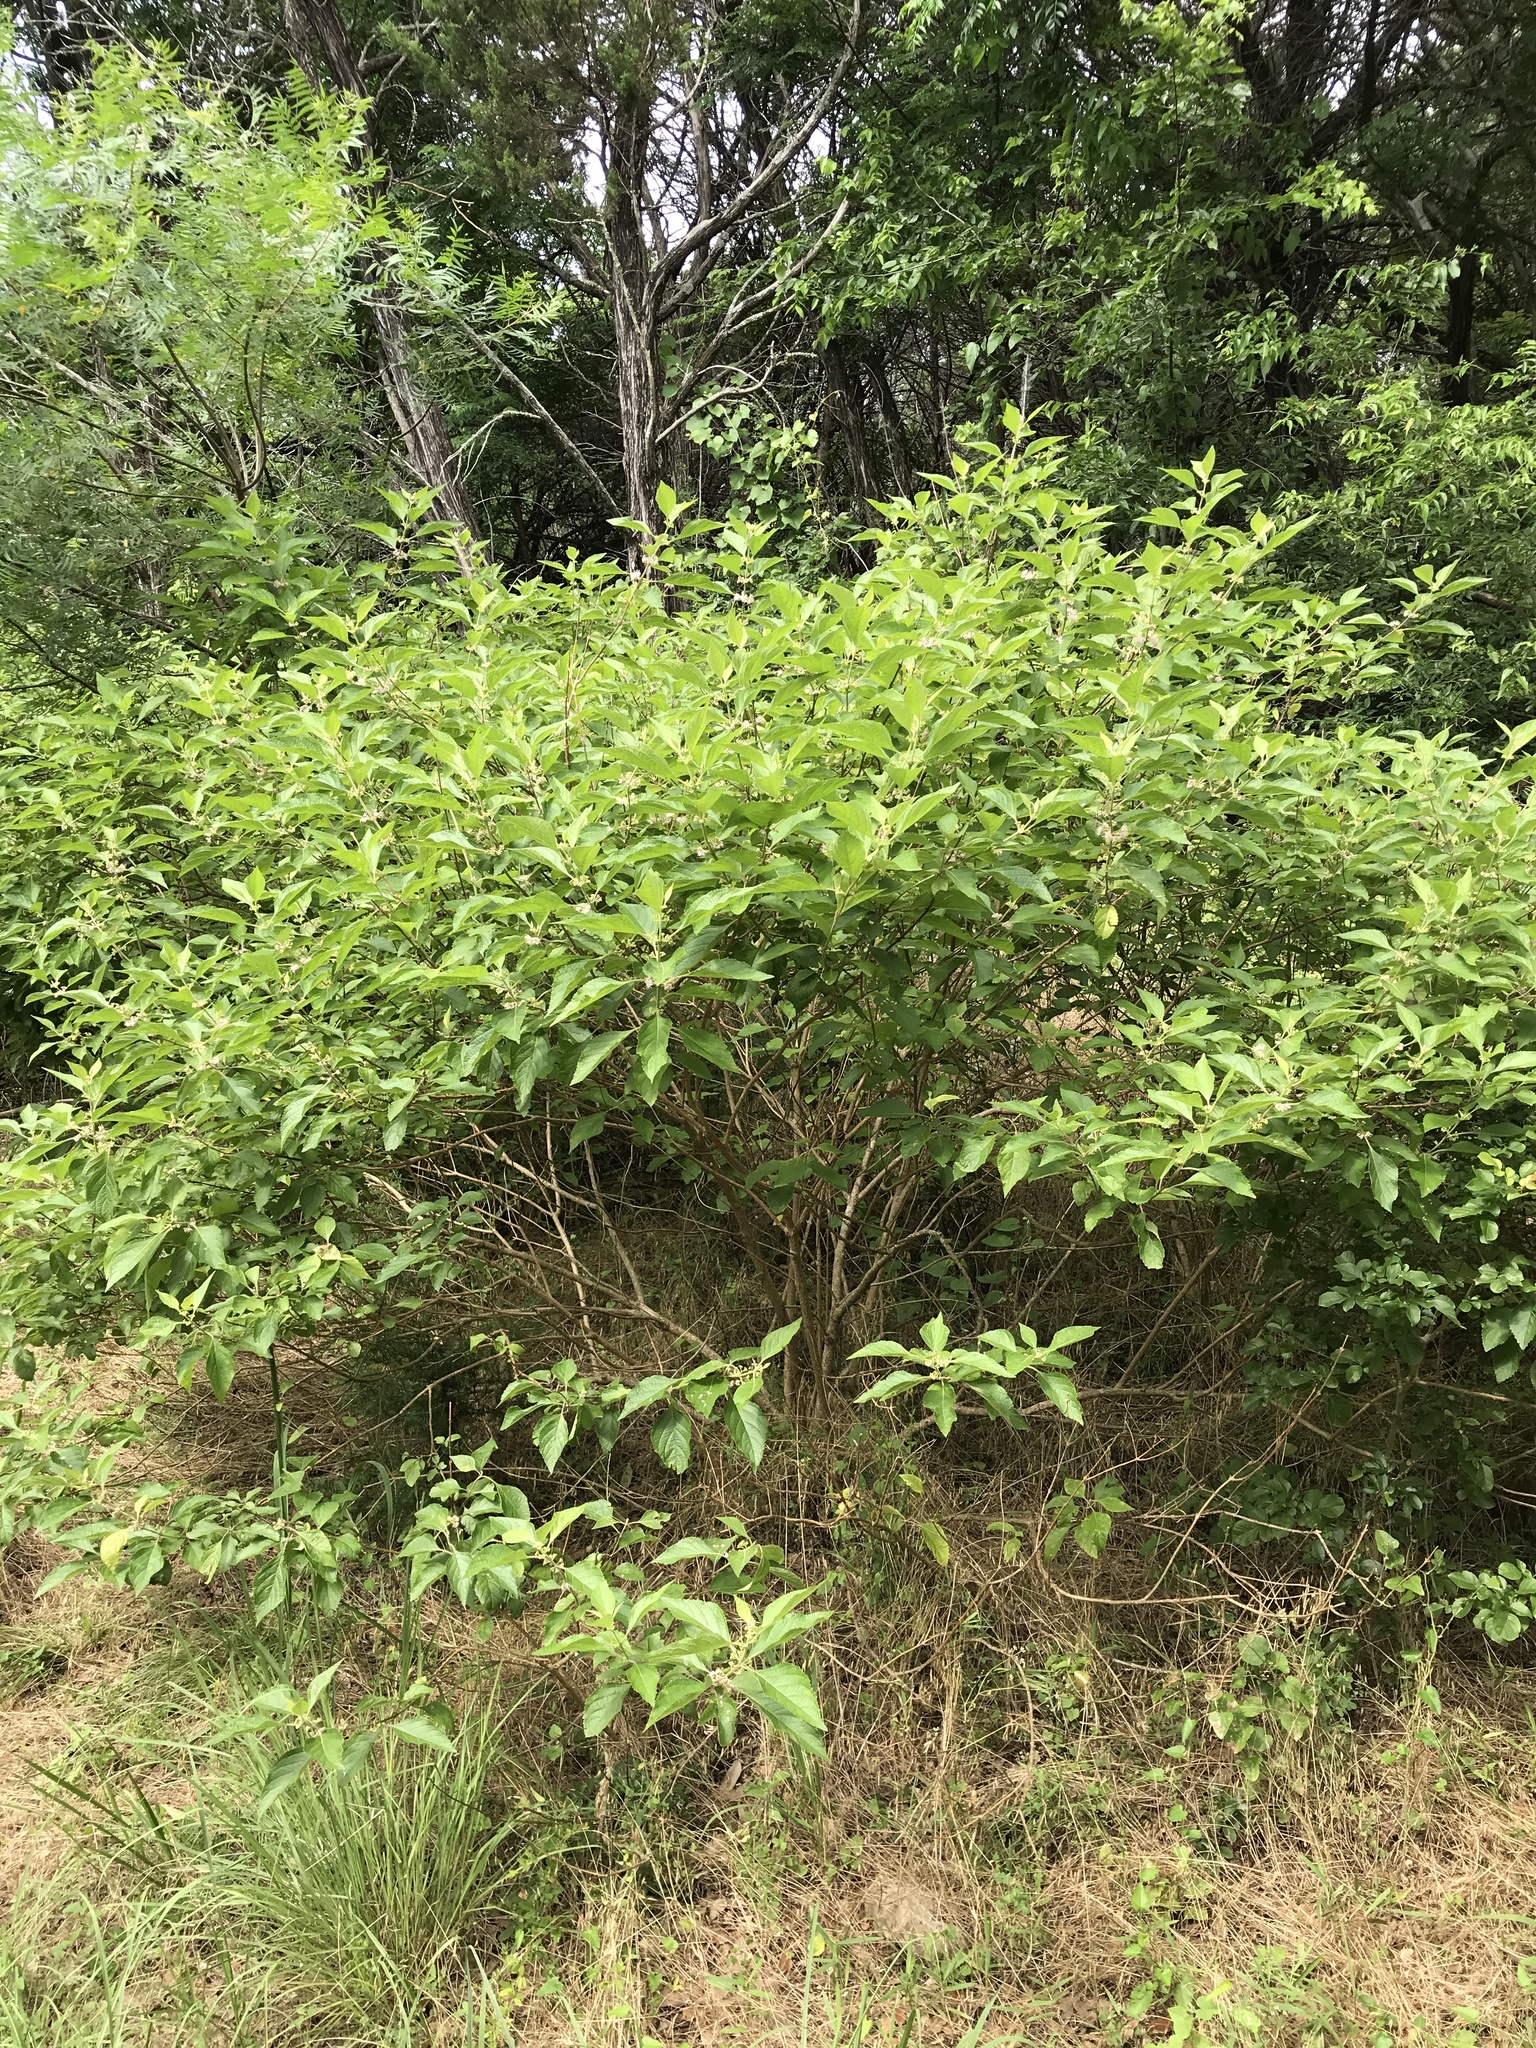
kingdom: Plantae
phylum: Tracheophyta
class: Magnoliopsida
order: Lamiales
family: Lamiaceae
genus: Callicarpa
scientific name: Callicarpa americana
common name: American beautyberry
